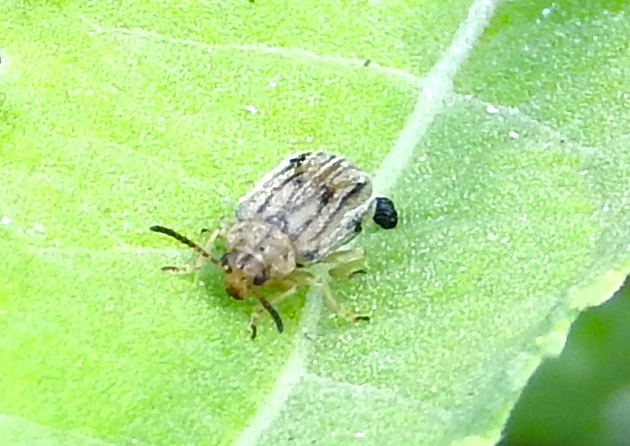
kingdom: Animalia
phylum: Arthropoda
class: Insecta
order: Coleoptera
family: Chrysomelidae
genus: Ophraella
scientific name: Ophraella
